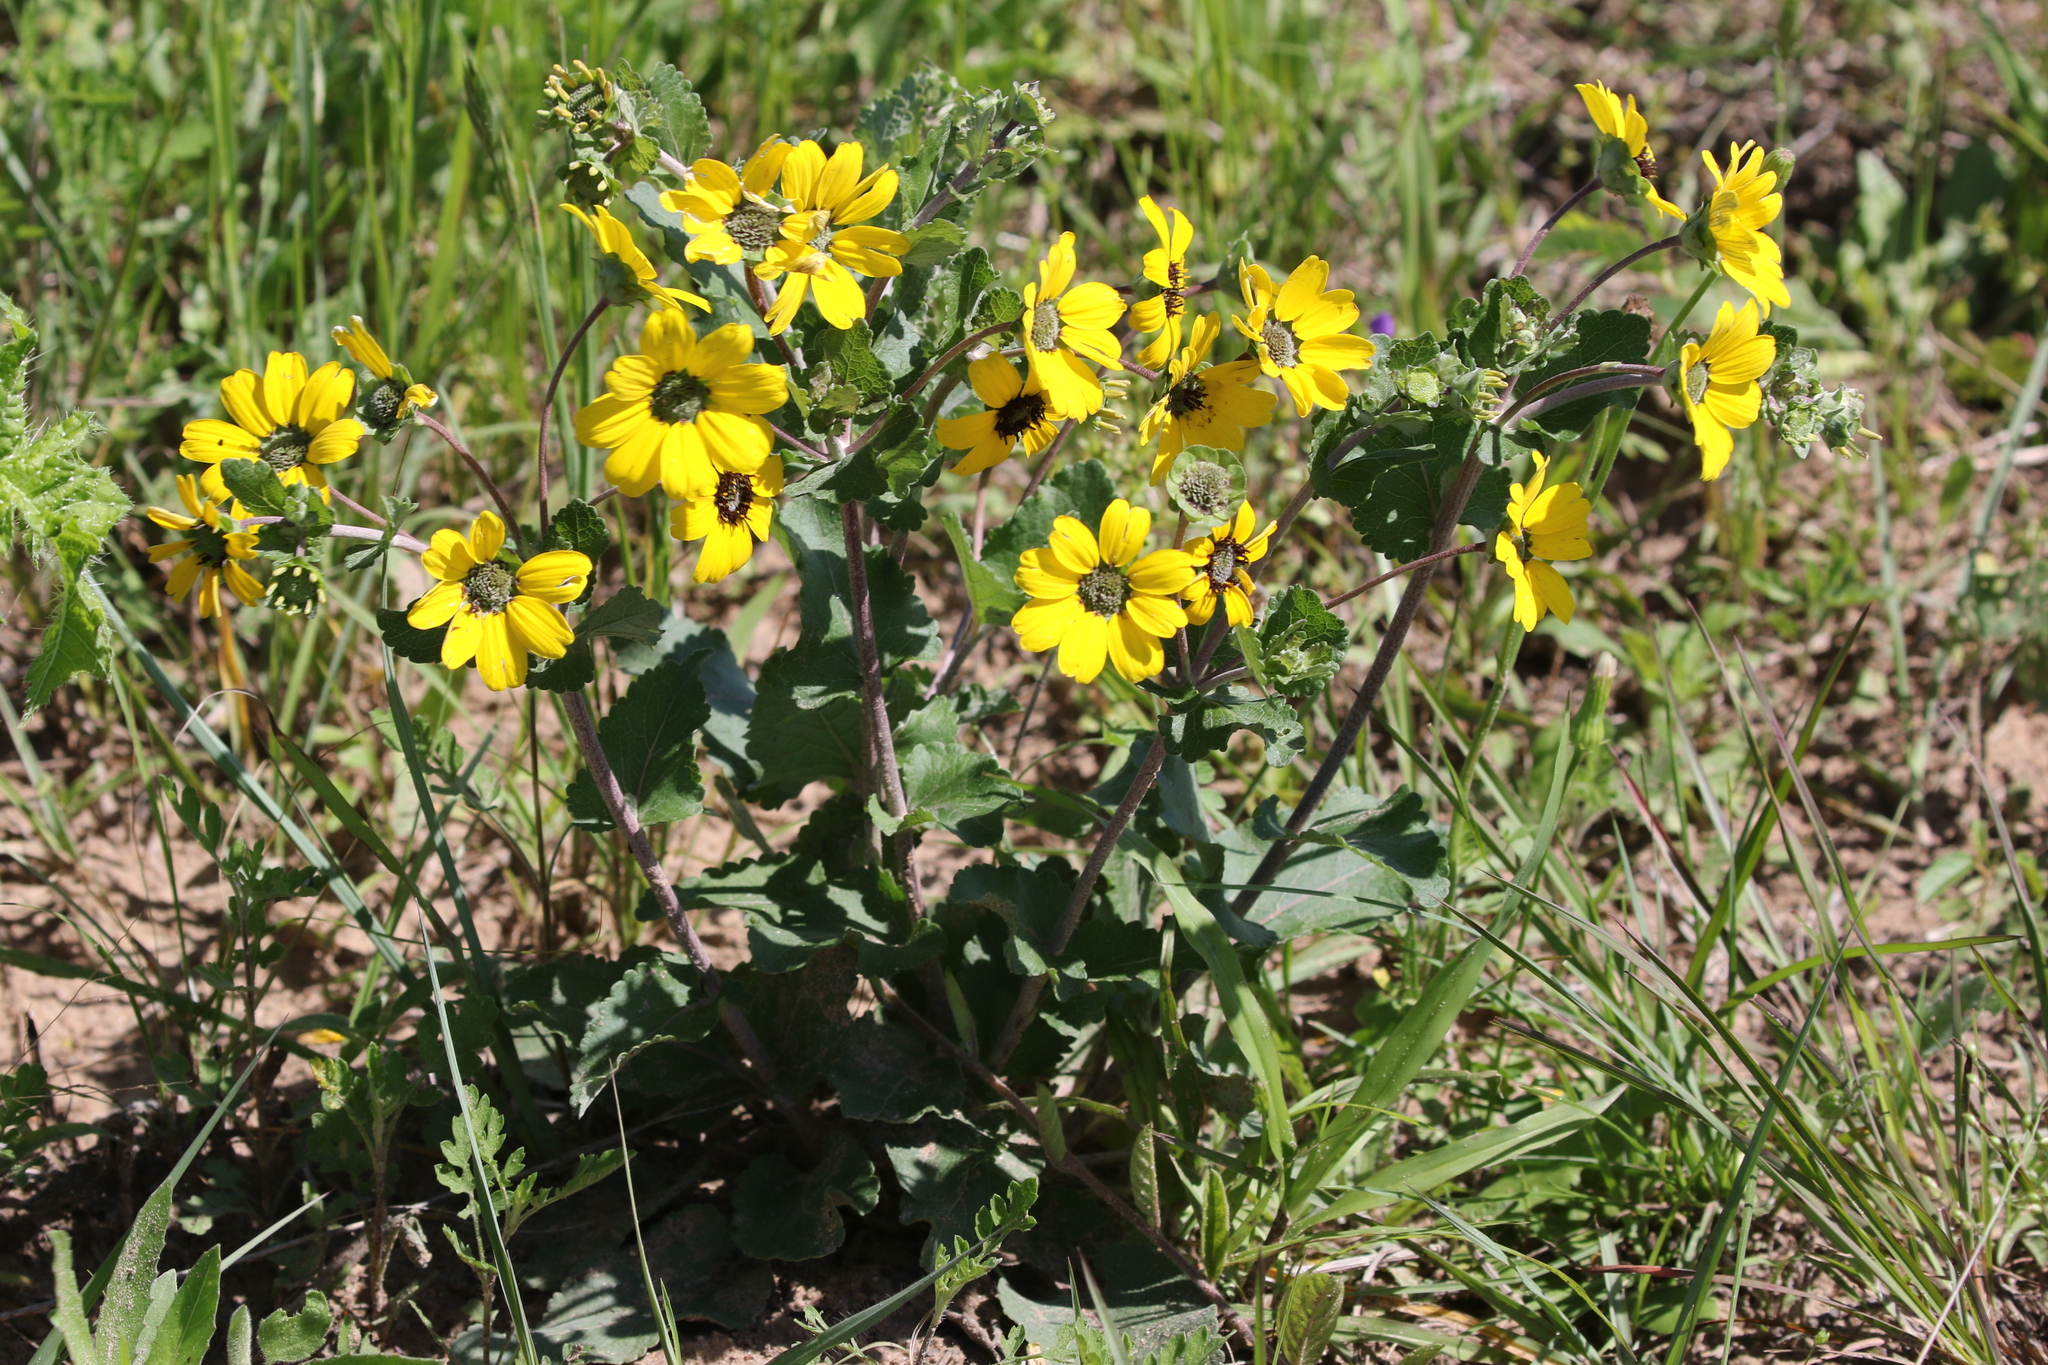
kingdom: Plantae
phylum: Tracheophyta
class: Magnoliopsida
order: Asterales
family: Asteraceae
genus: Berlandiera
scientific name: Berlandiera pumila
